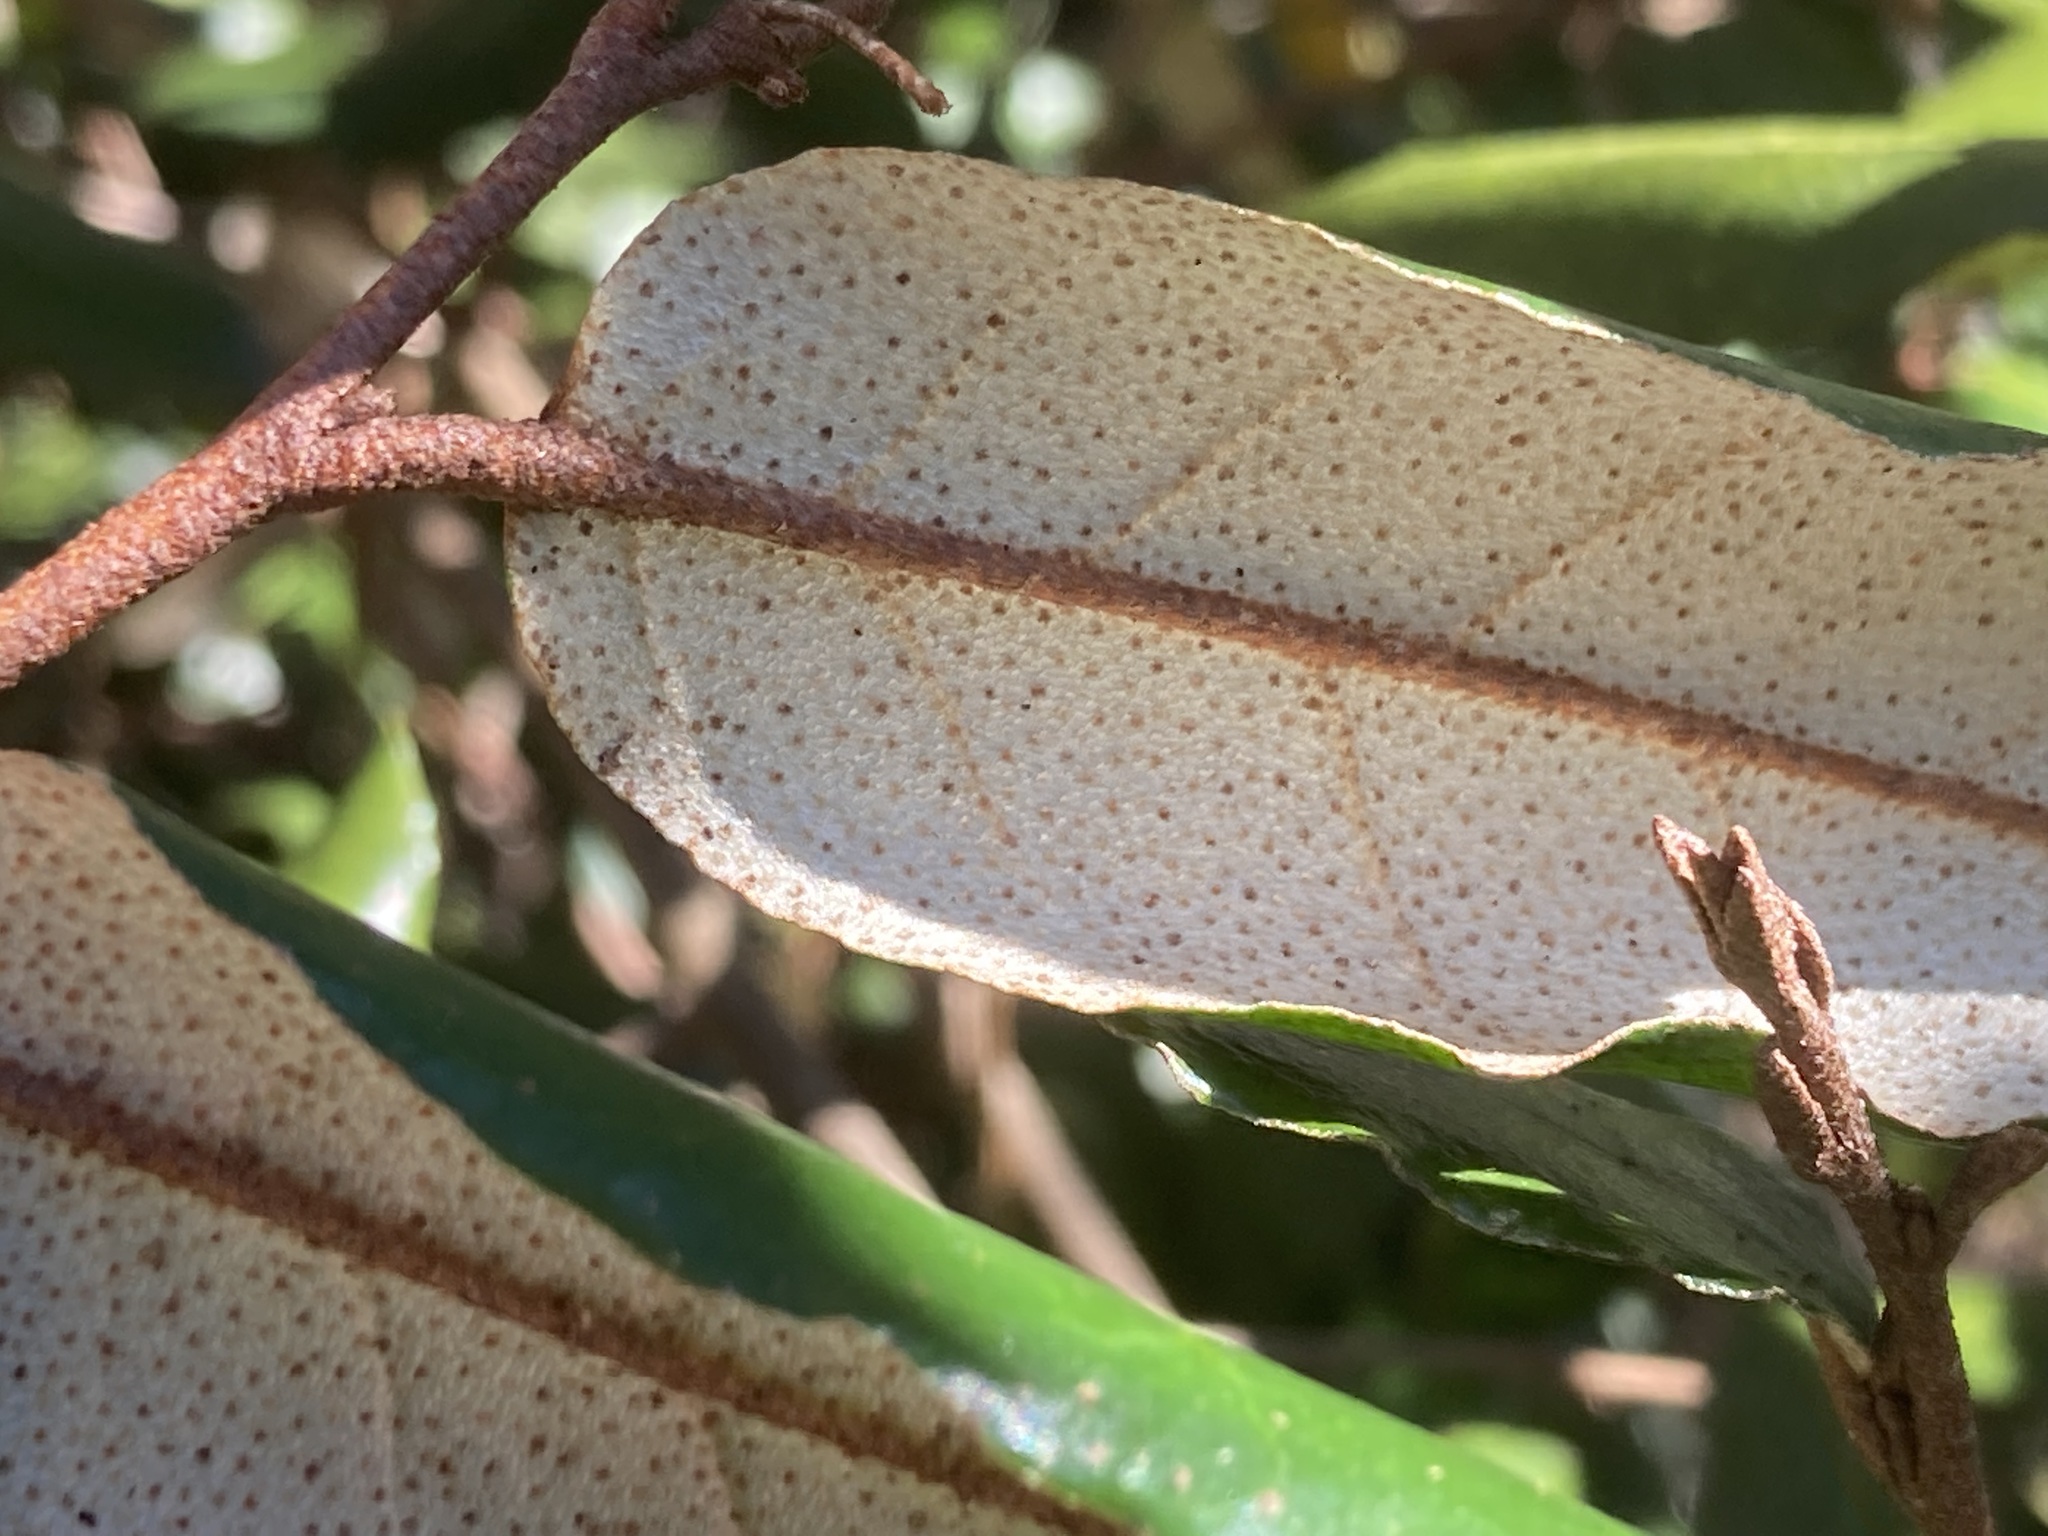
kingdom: Plantae
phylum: Tracheophyta
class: Magnoliopsida
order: Rosales
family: Elaeagnaceae
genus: Elaeagnus
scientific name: Elaeagnus pungens
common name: Spiny oleaster
